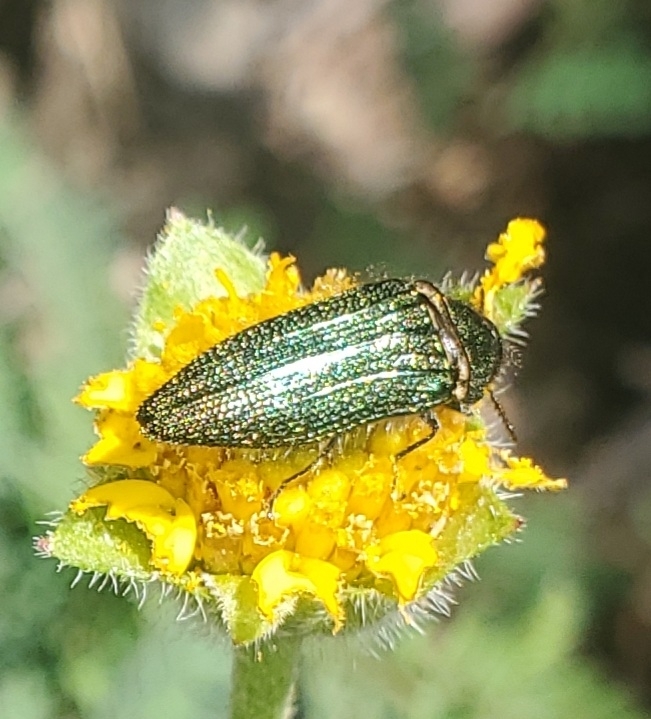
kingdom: Animalia
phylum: Arthropoda
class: Insecta
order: Coleoptera
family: Buprestidae
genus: Acmaeodera
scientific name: Acmaeodera resplendens
